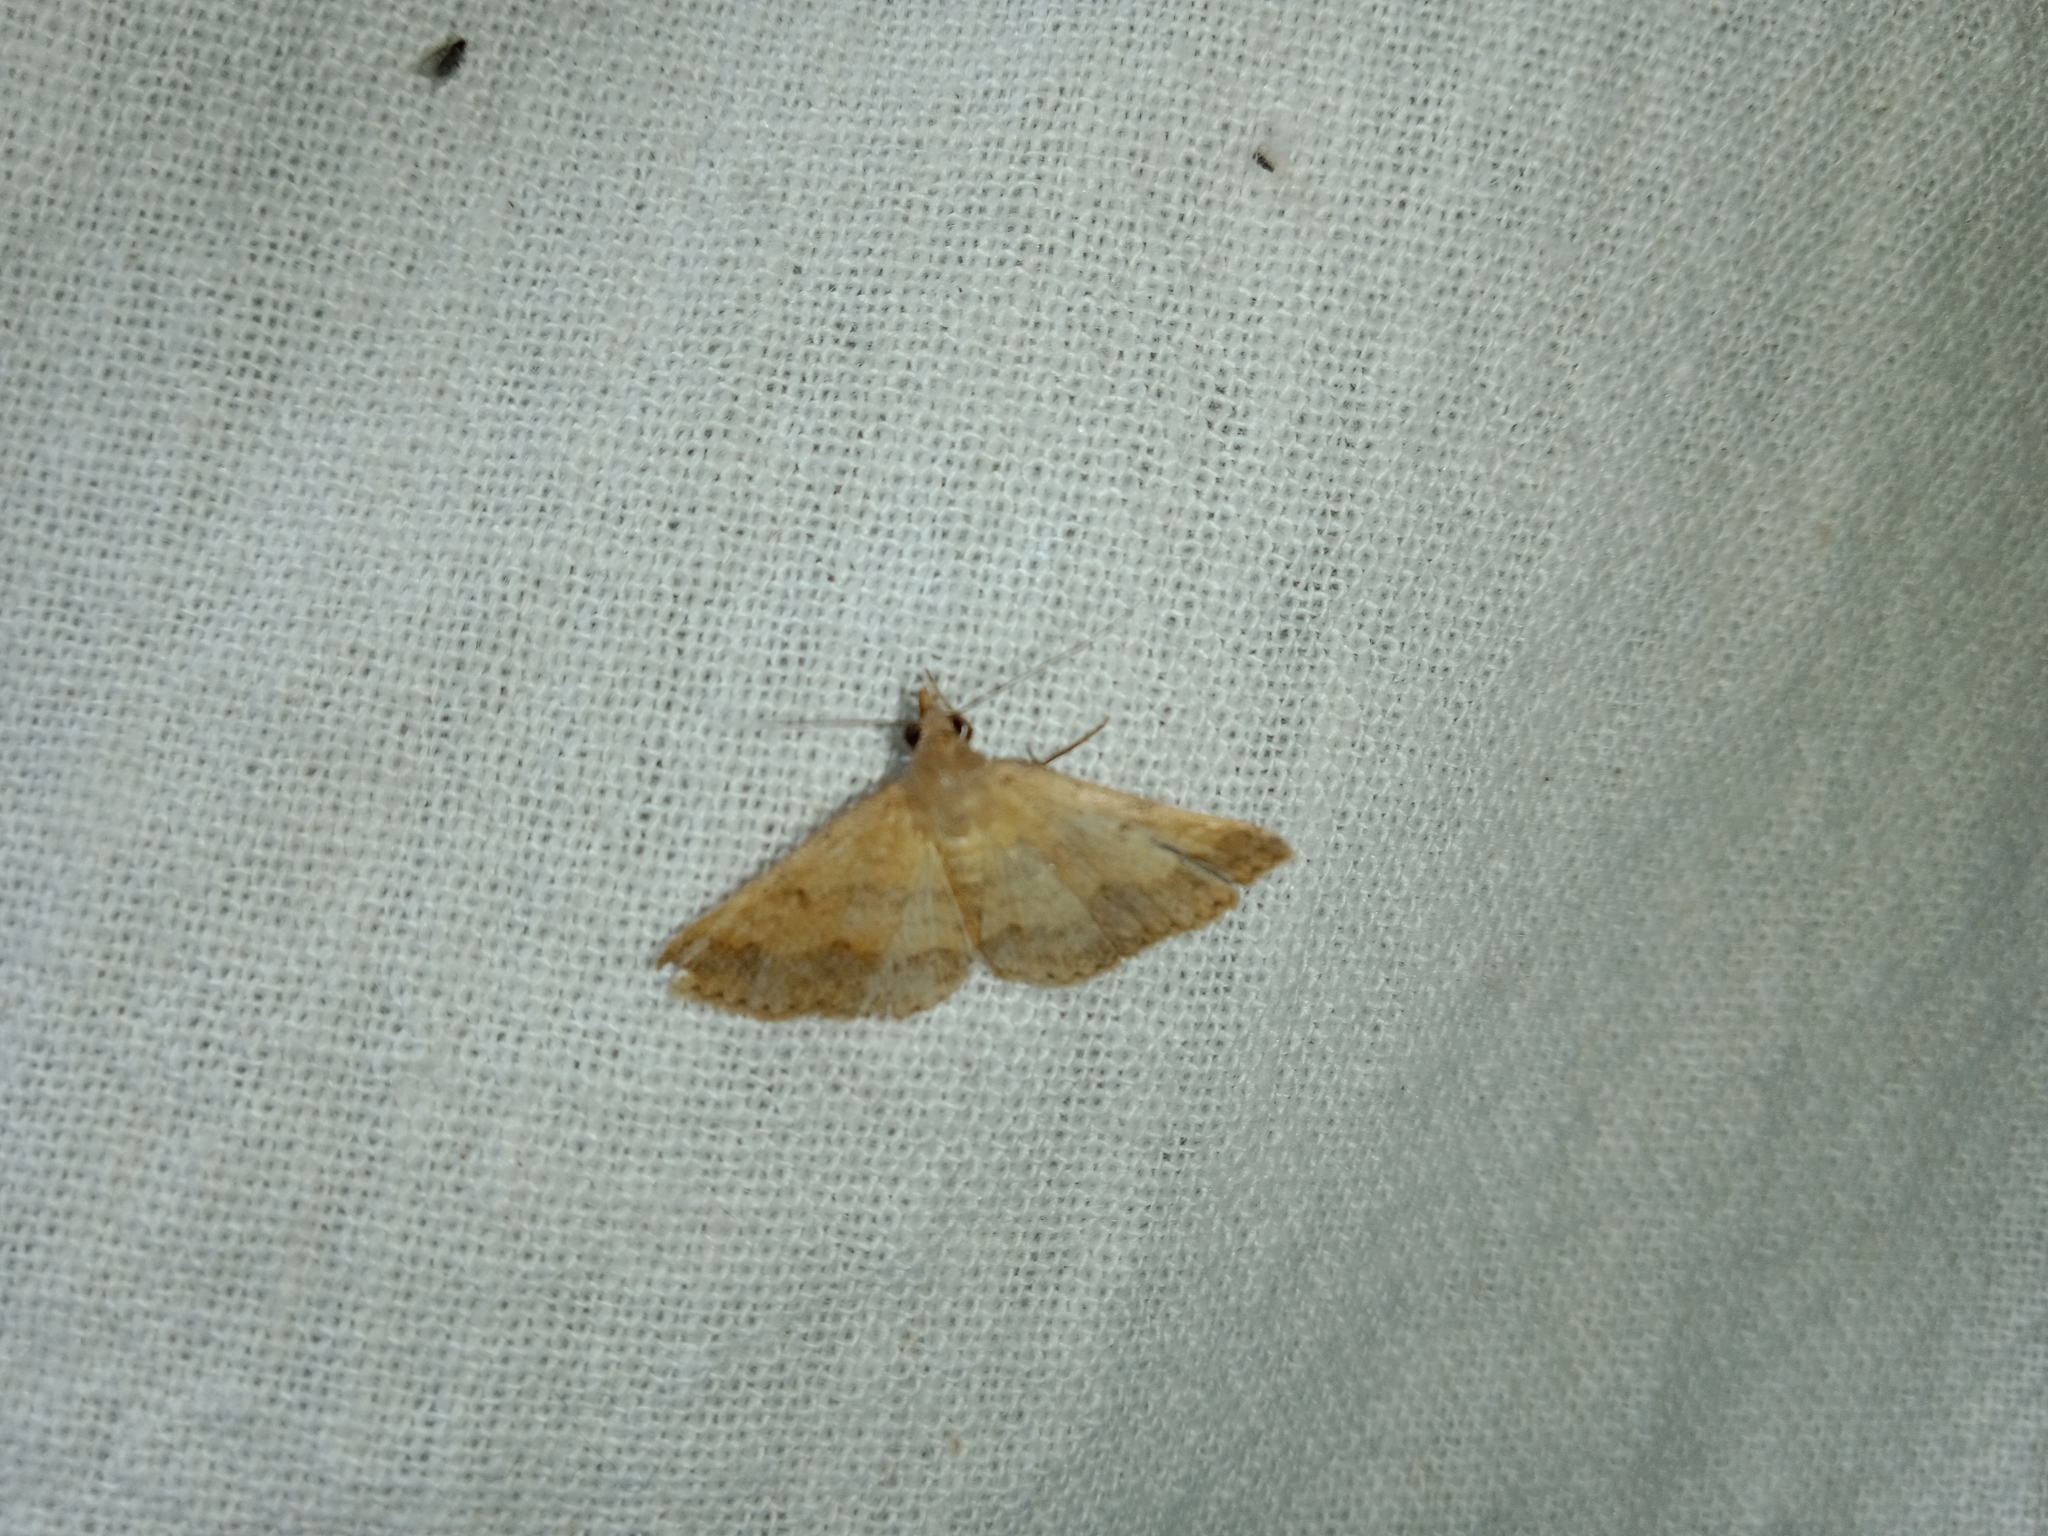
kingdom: Animalia
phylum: Arthropoda
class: Insecta
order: Lepidoptera
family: Erebidae
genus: Gesonia
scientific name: Gesonia obeditalis
